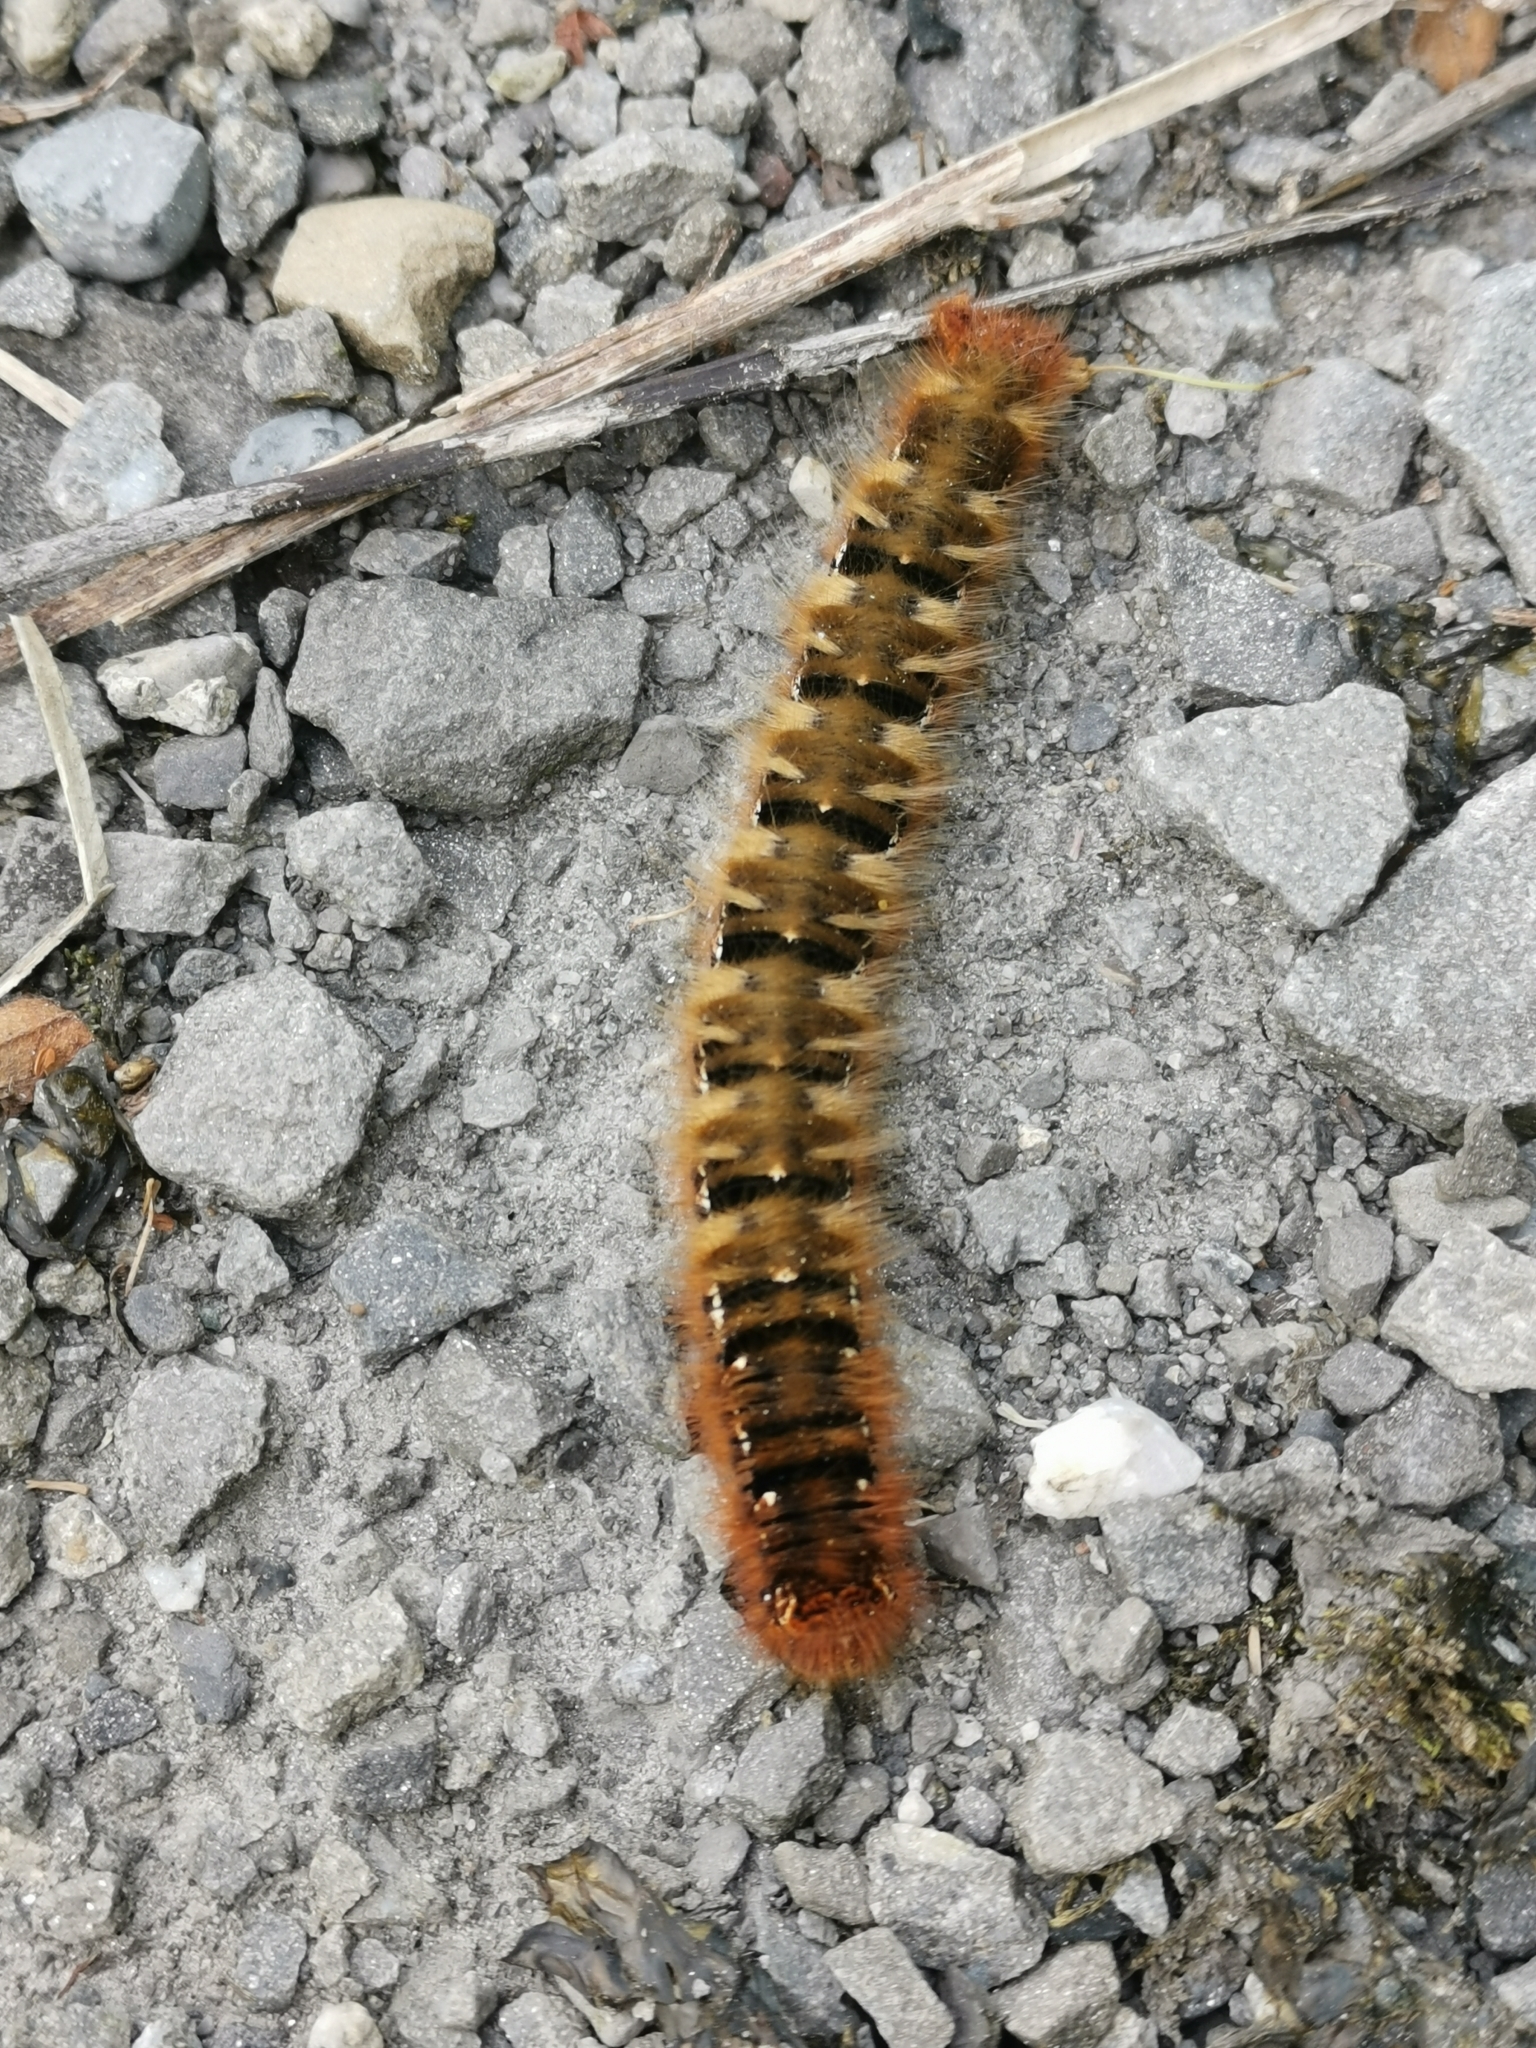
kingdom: Animalia
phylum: Arthropoda
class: Insecta
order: Lepidoptera
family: Lasiocampidae
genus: Lasiocampa
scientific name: Lasiocampa quercus
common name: Oak eggar
